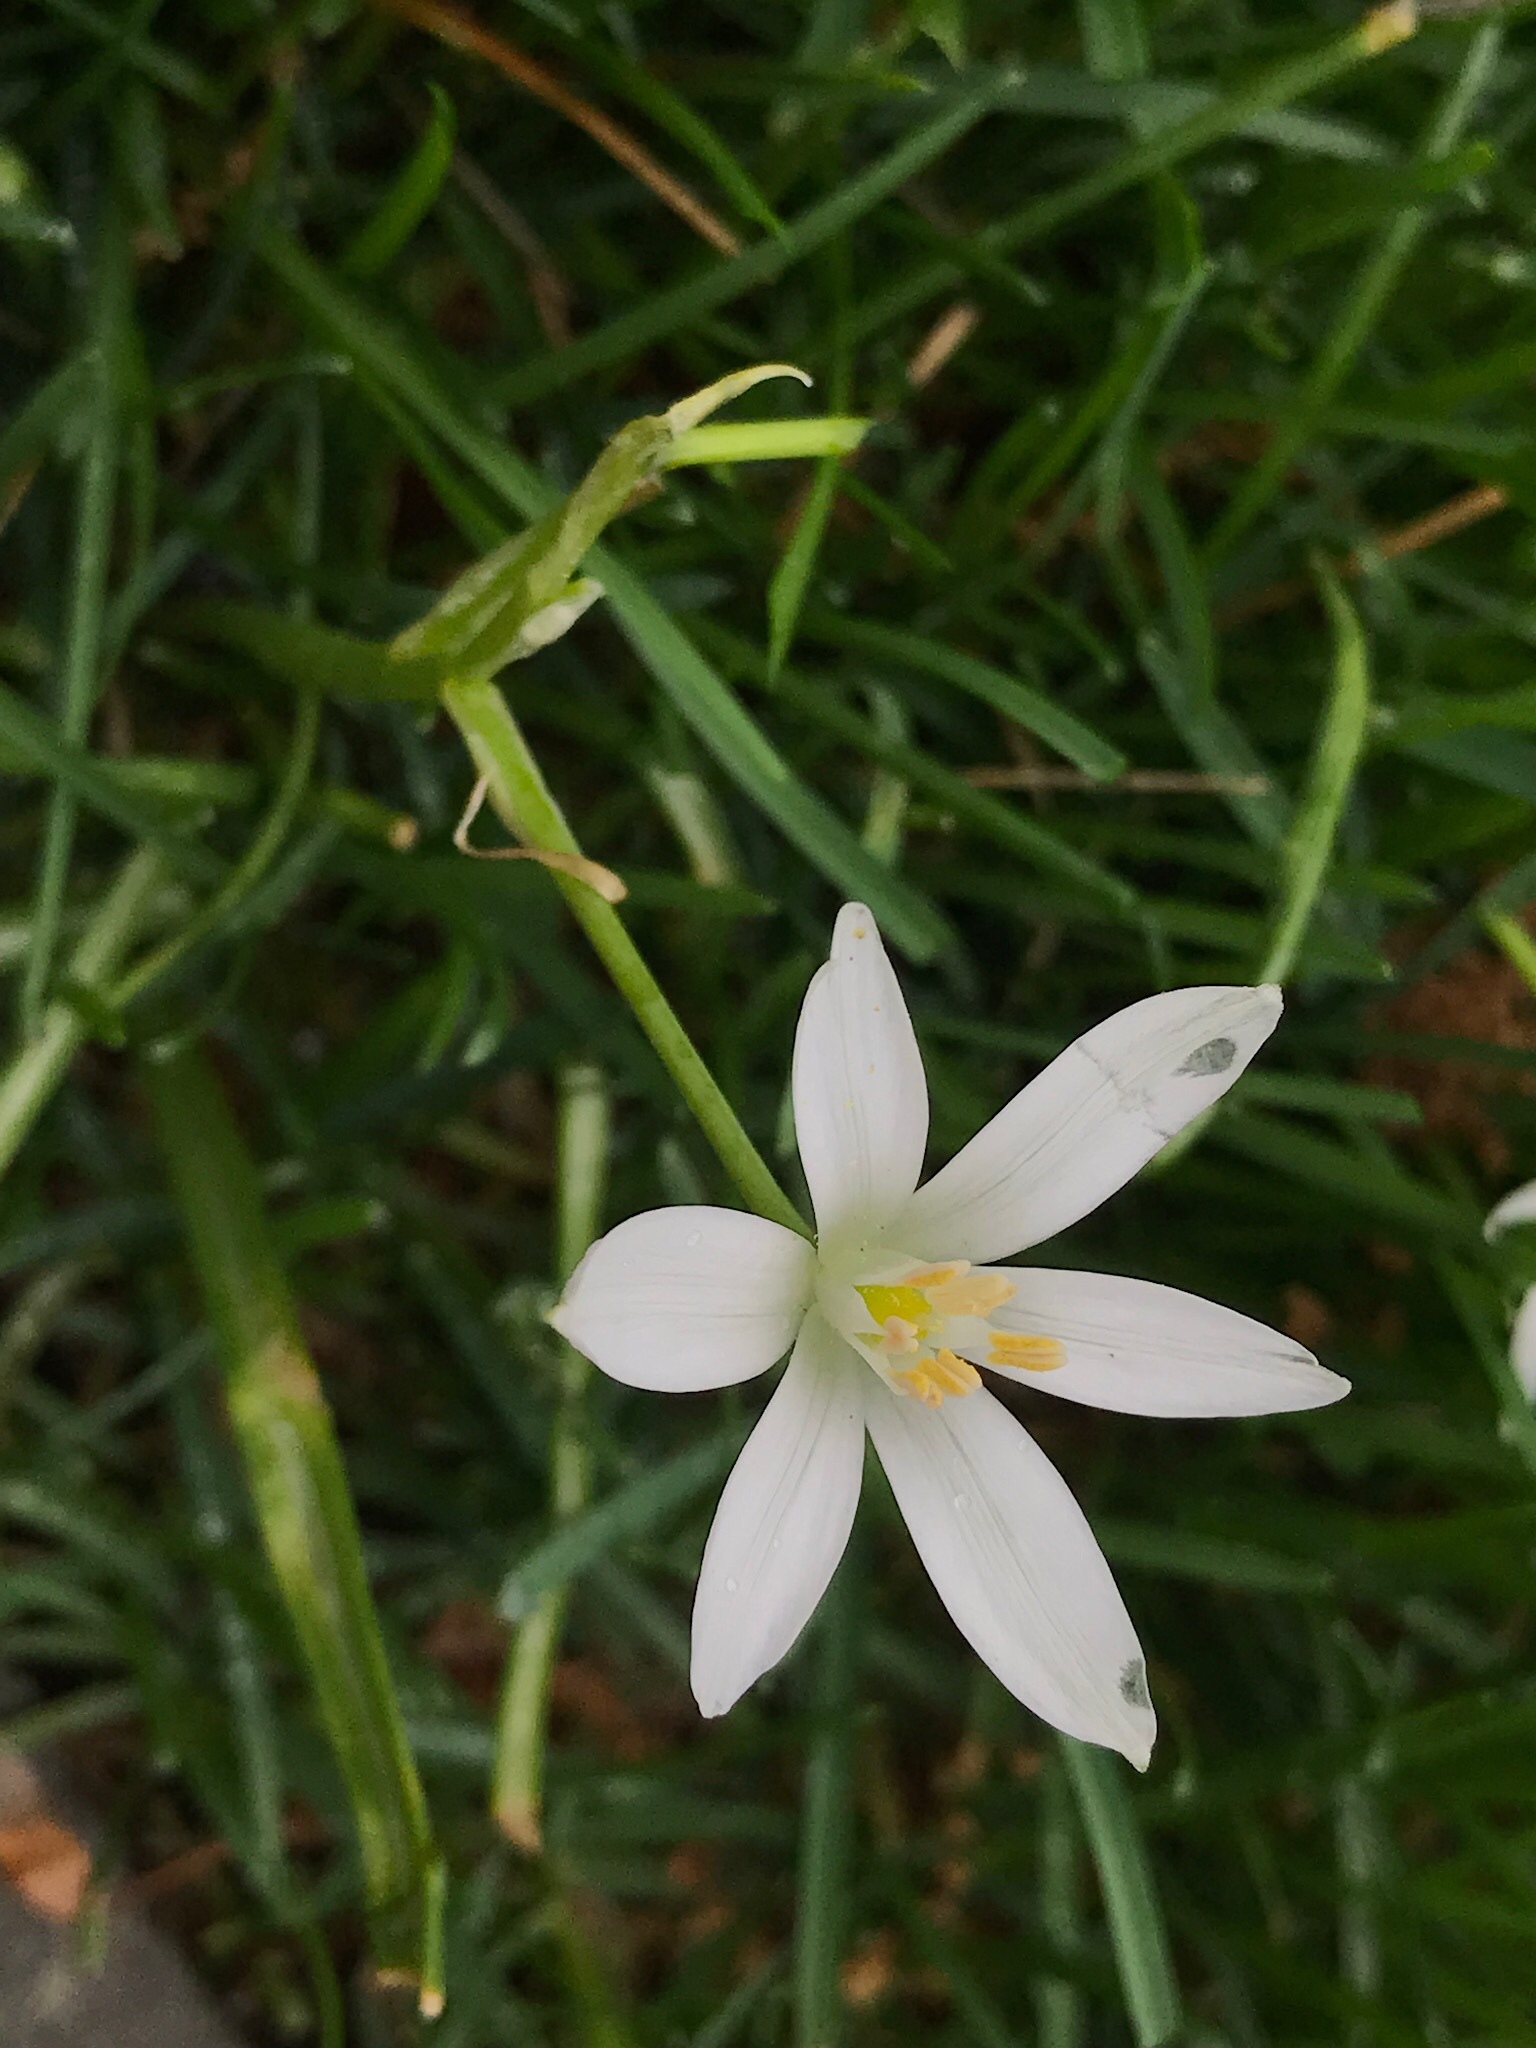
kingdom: Plantae
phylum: Tracheophyta
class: Liliopsida
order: Asparagales
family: Asparagaceae
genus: Ornithogalum
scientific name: Ornithogalum umbellatum
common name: Garden star-of-bethlehem
